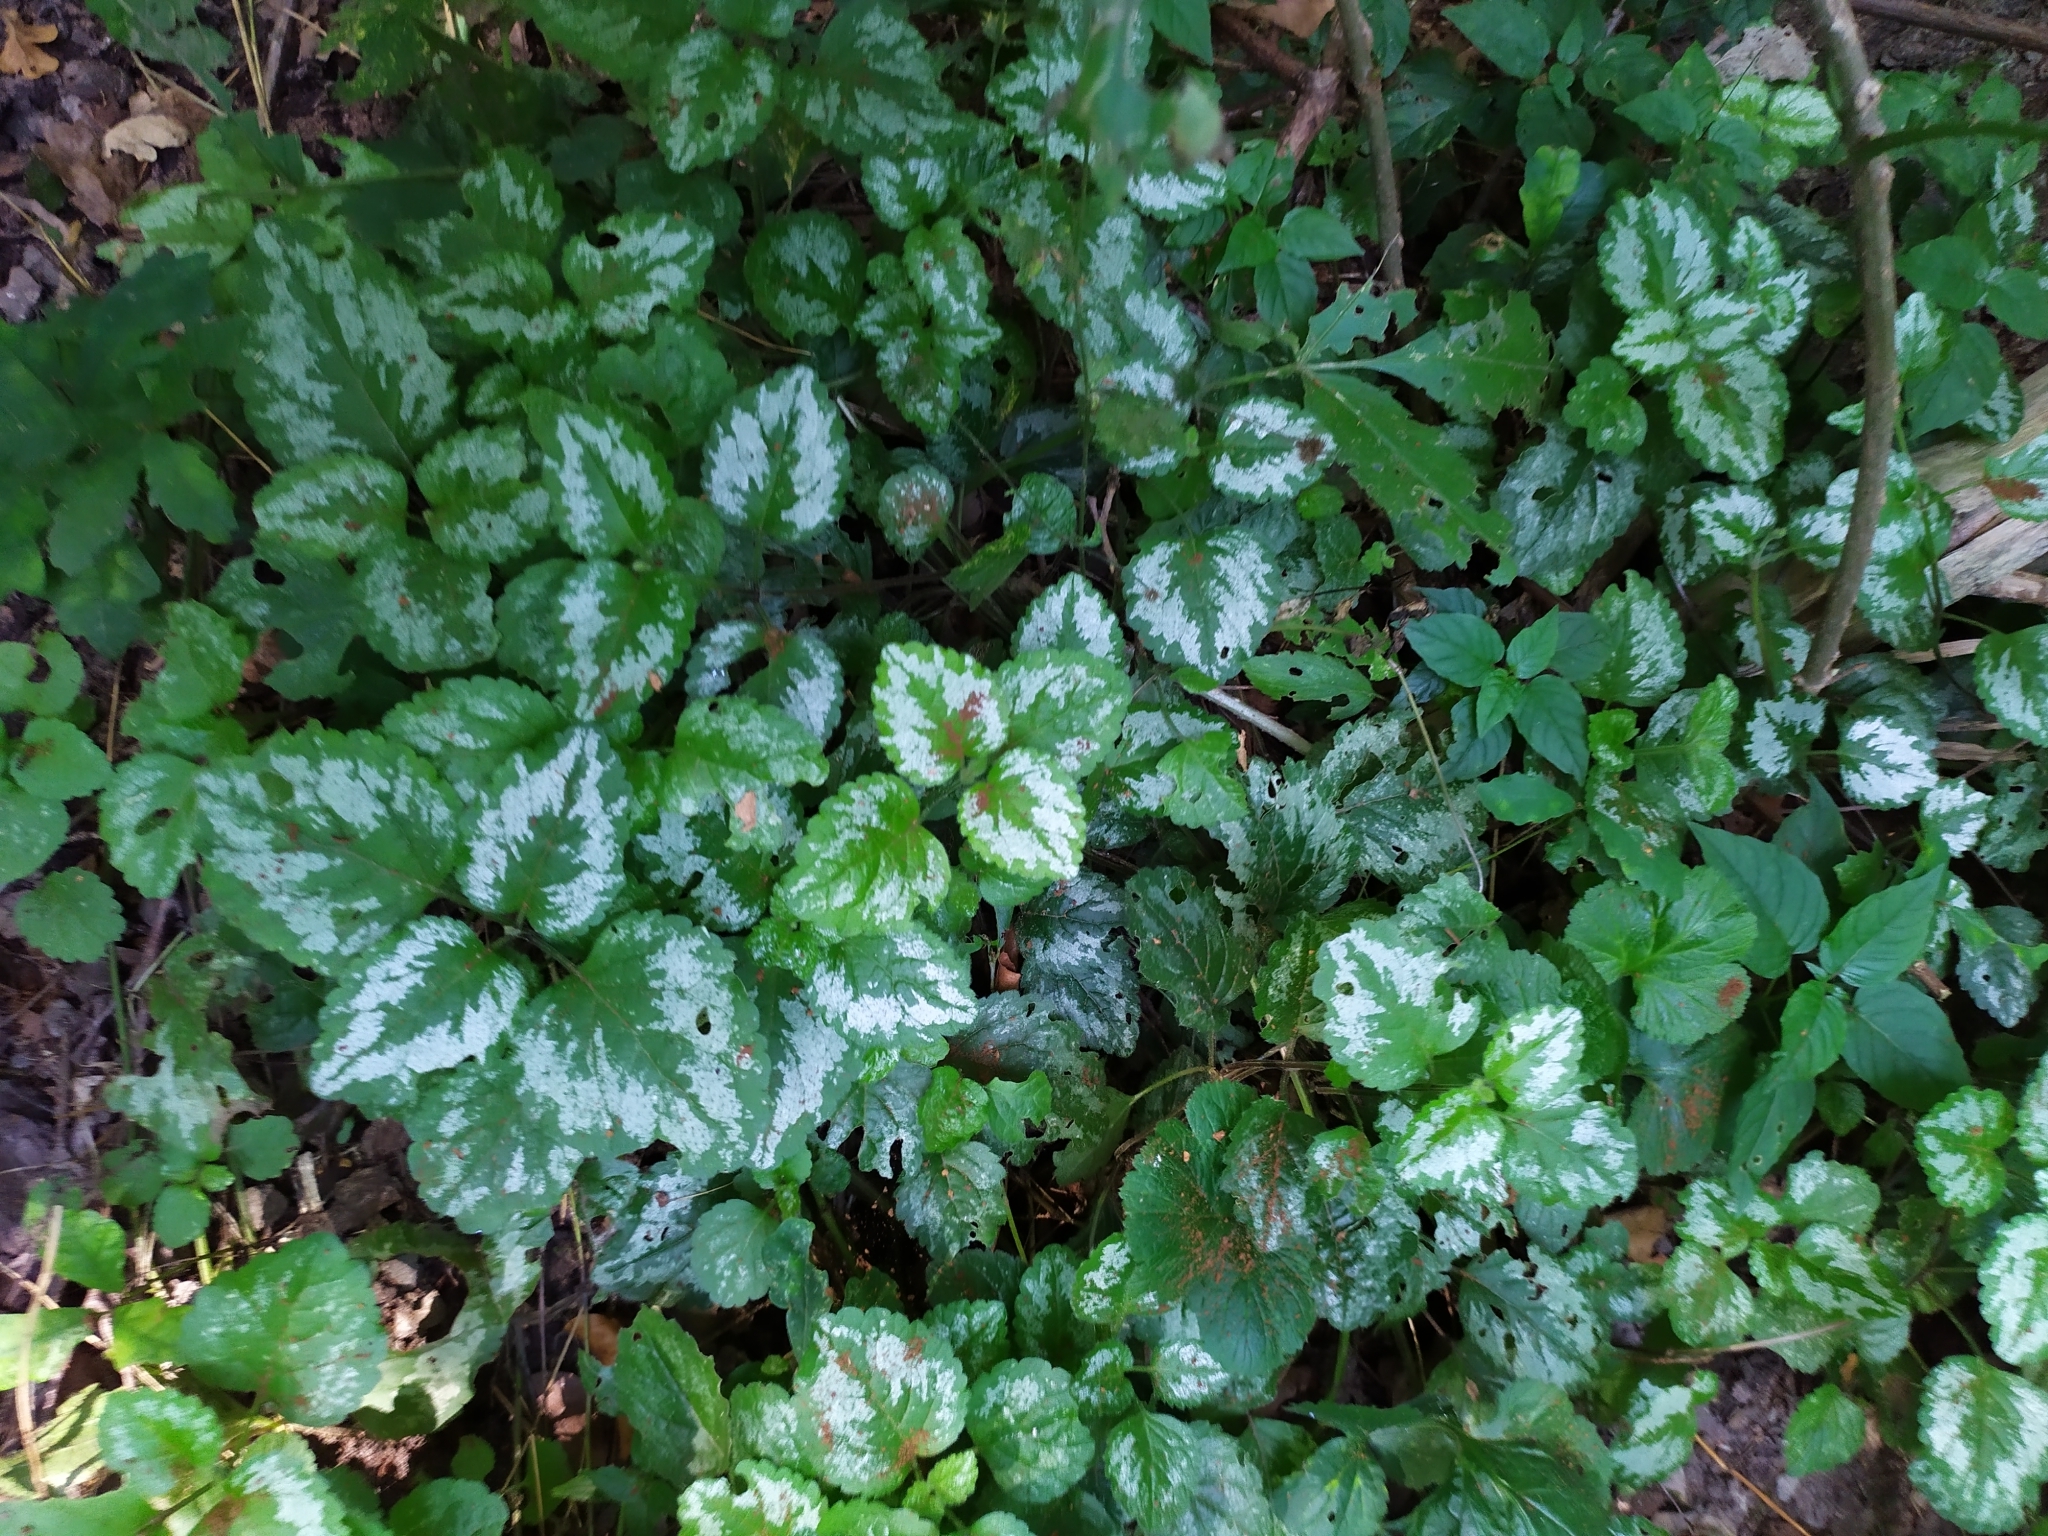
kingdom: Plantae
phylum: Tracheophyta
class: Magnoliopsida
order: Lamiales
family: Lamiaceae
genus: Lamium
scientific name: Lamium galeobdolon
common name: Yellow archangel
